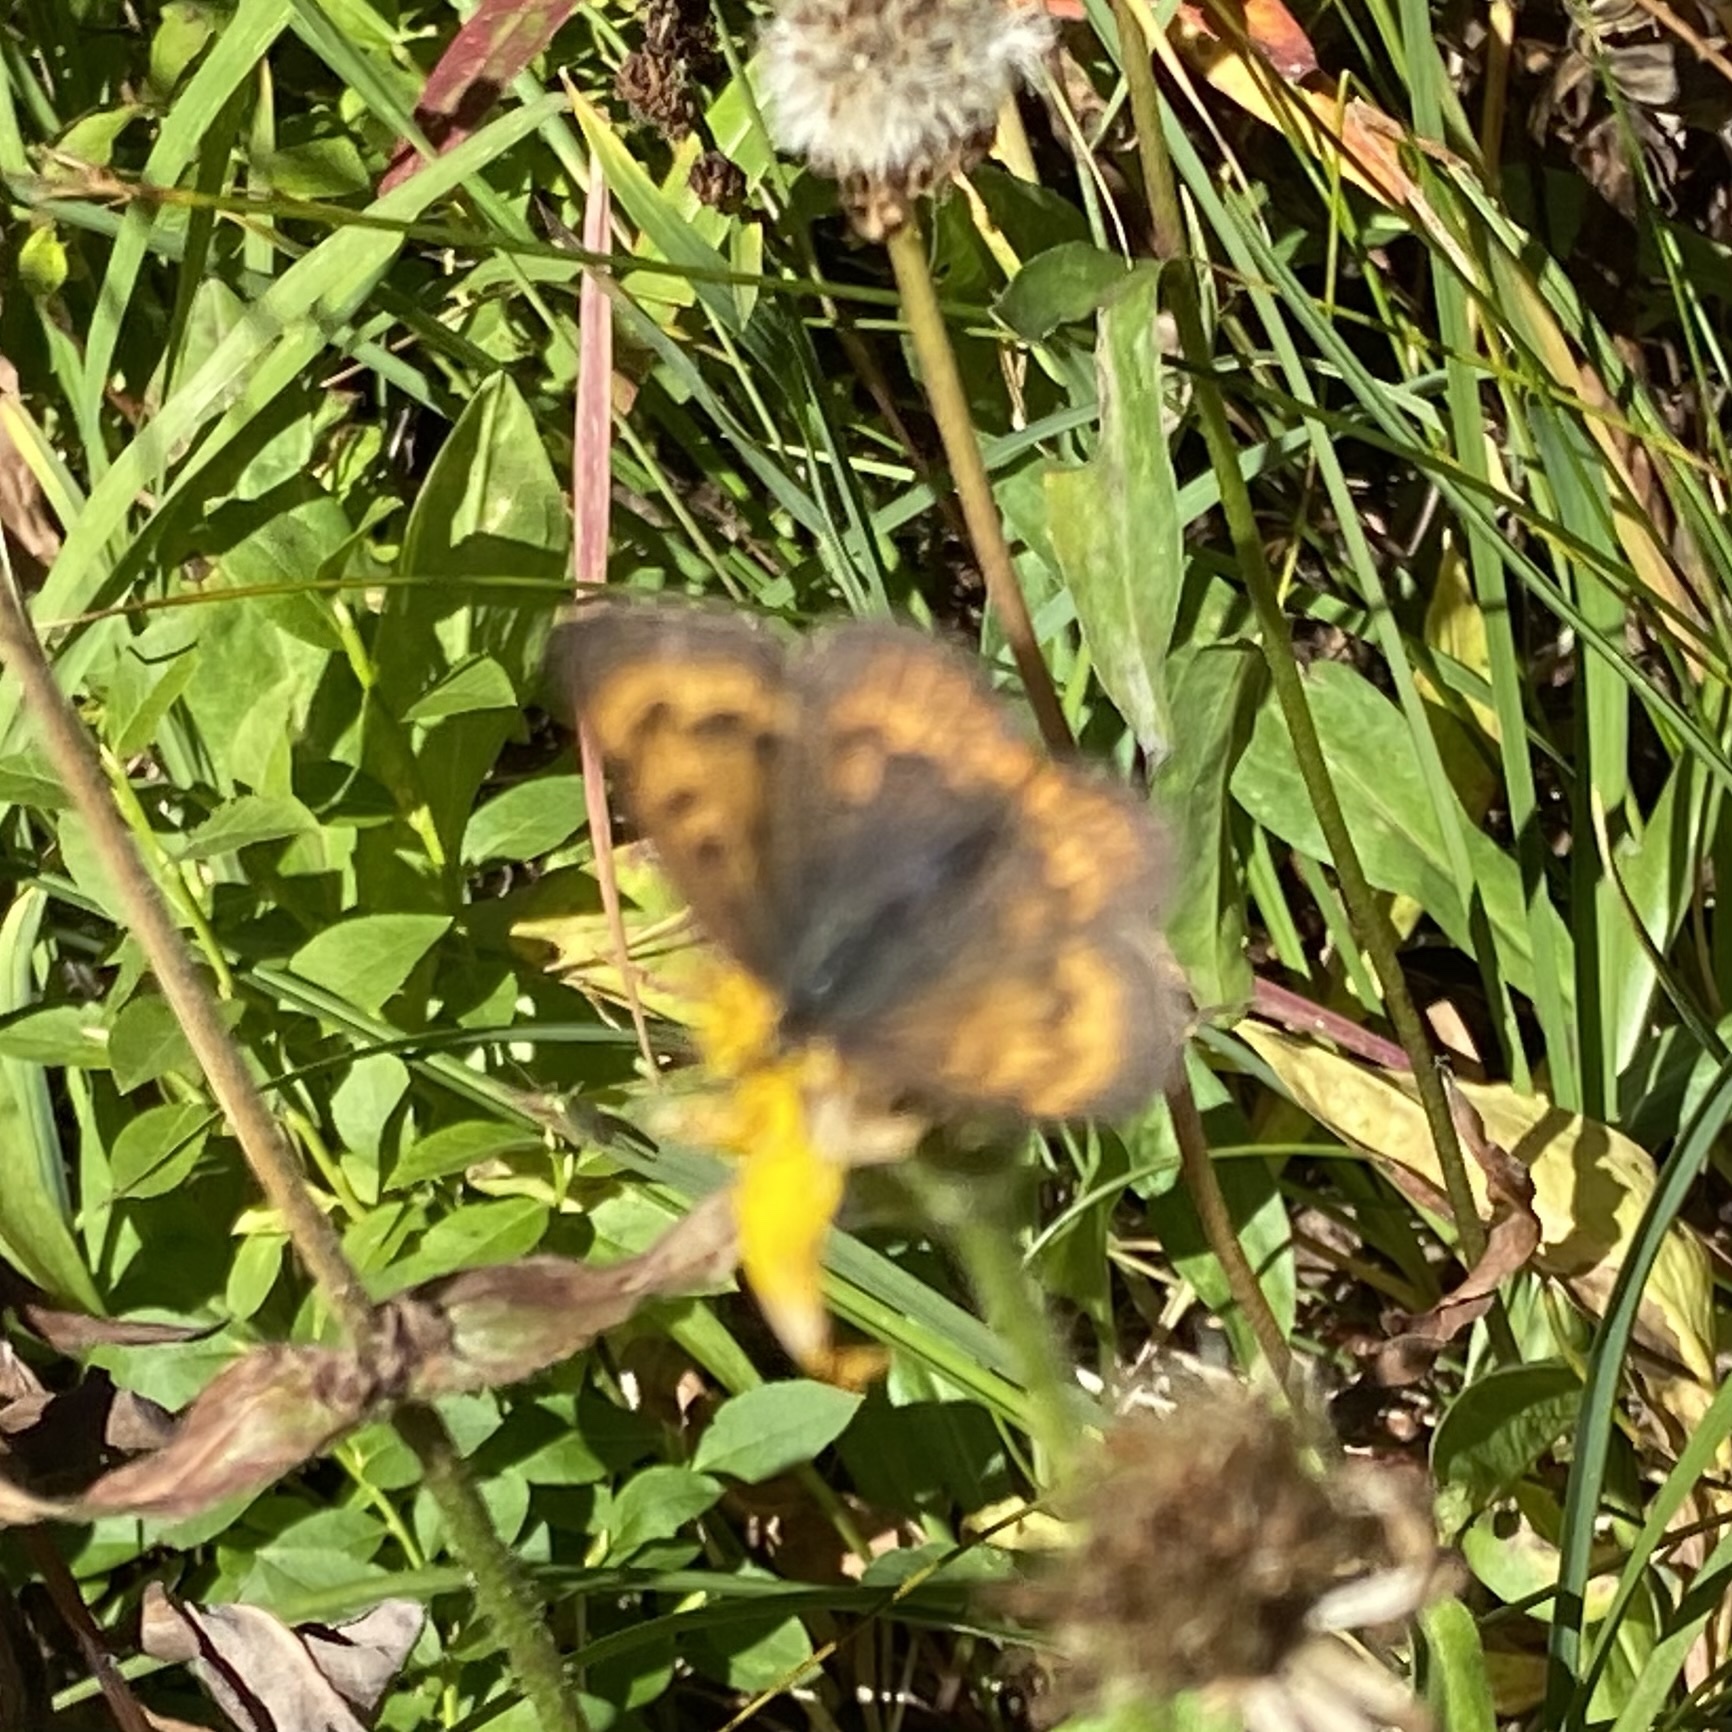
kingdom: Animalia
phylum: Arthropoda
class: Insecta
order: Lepidoptera
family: Lycaenidae
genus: Tharsalea
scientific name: Tharsalea dorcas
